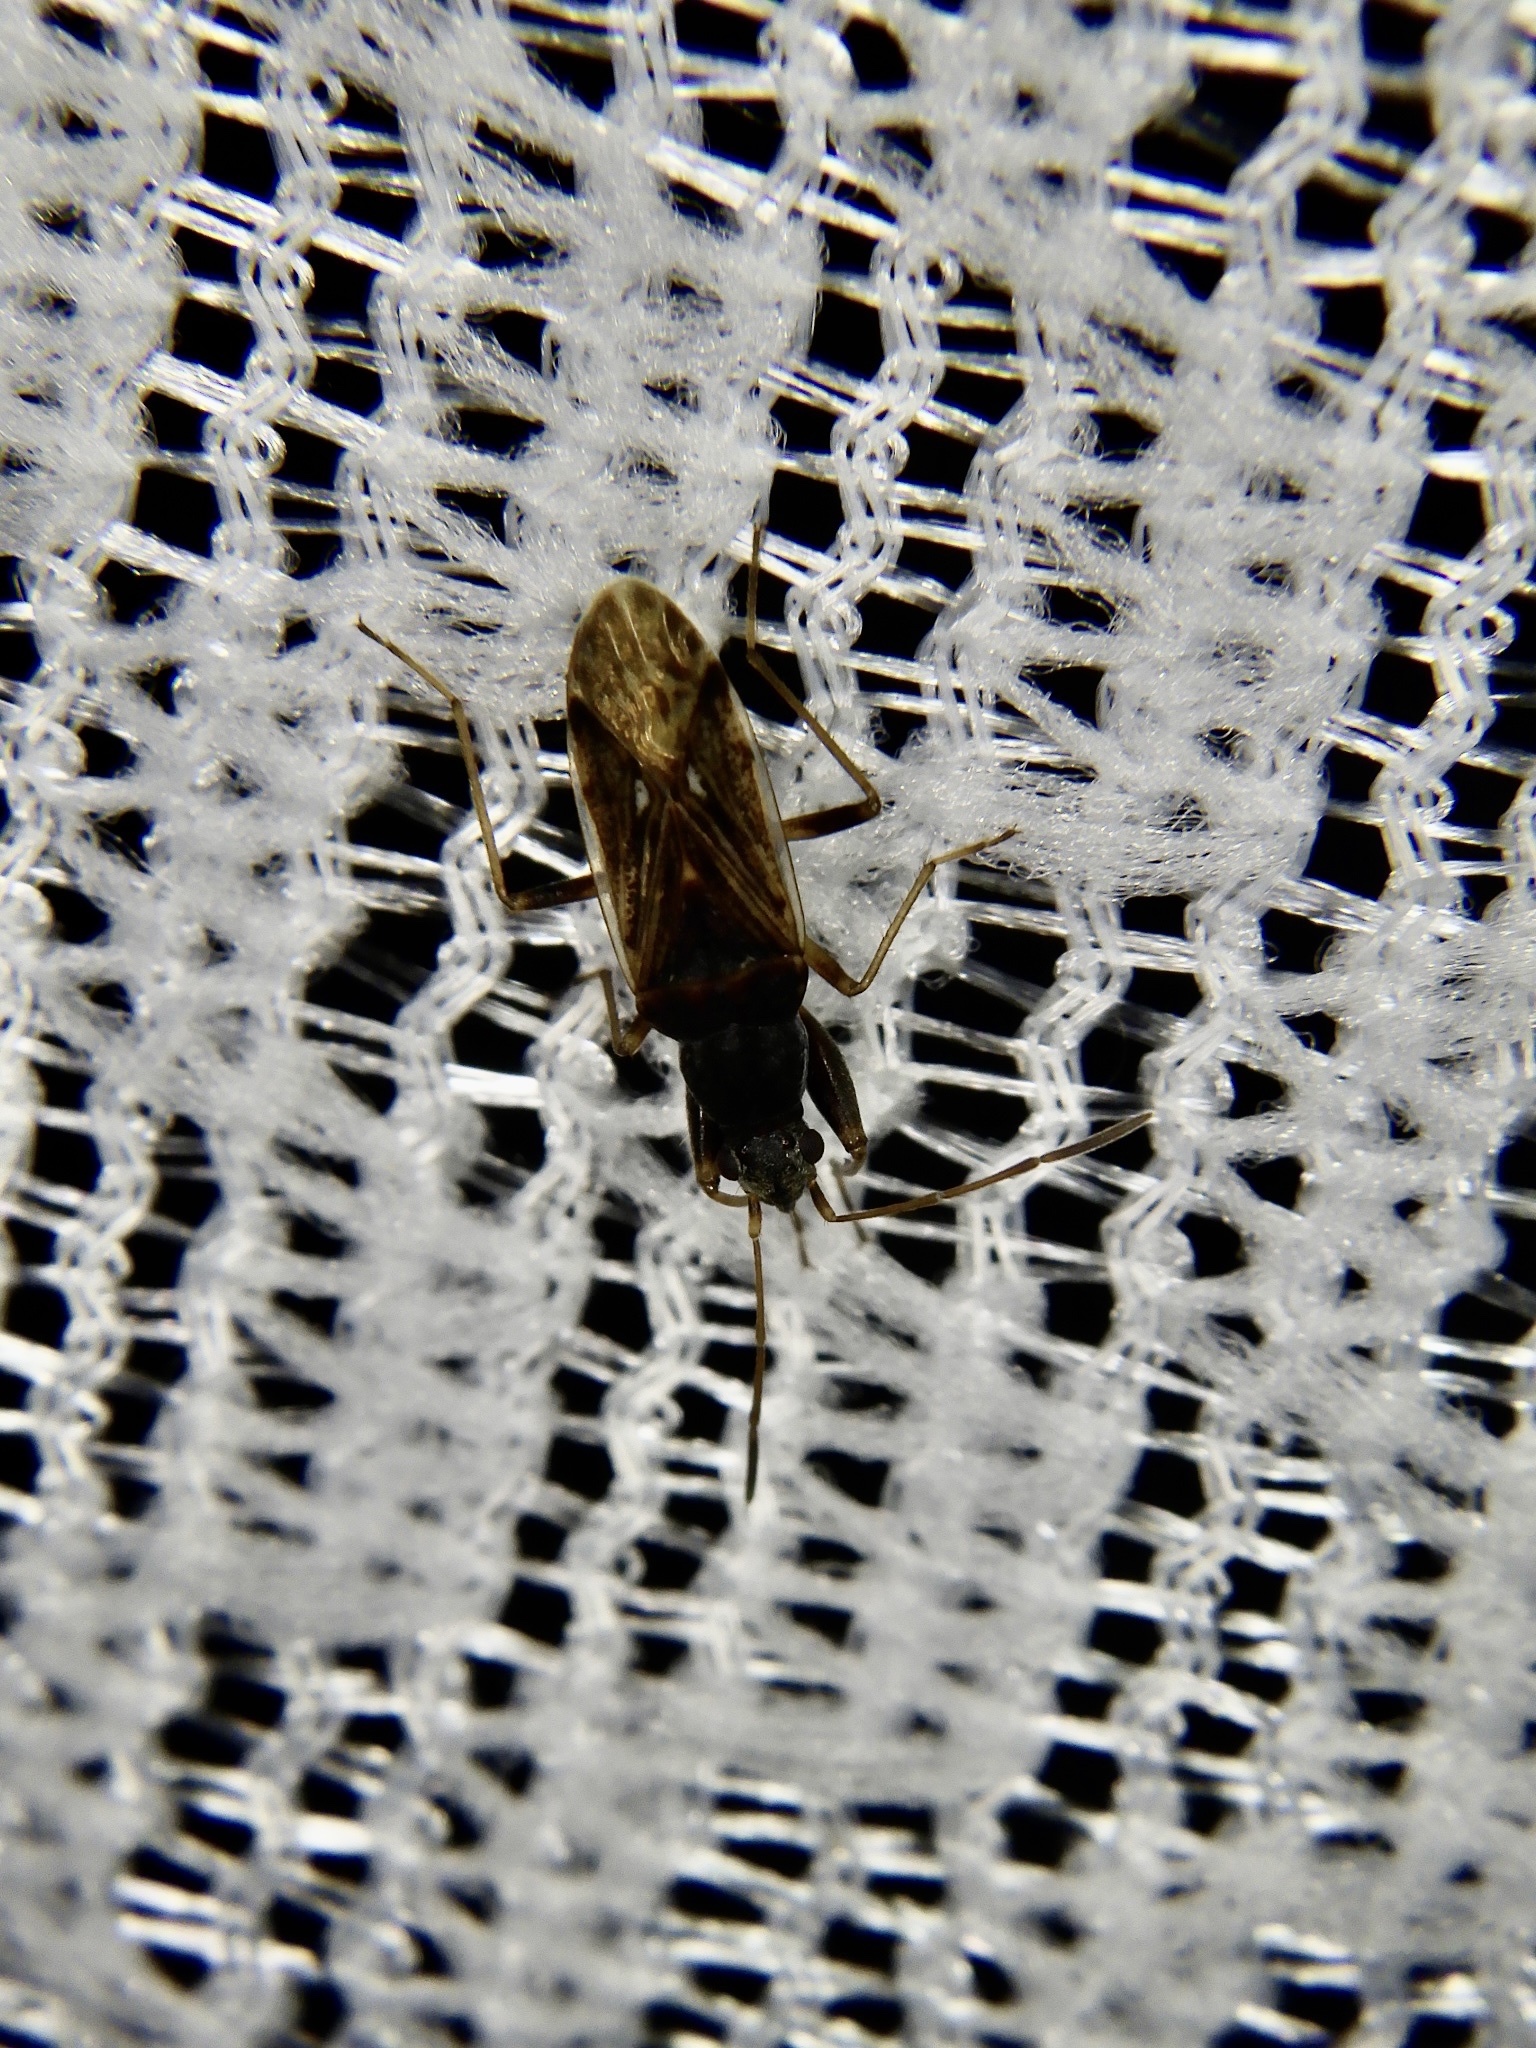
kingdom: Animalia
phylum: Arthropoda
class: Insecta
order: Hemiptera
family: Rhyparochromidae
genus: Horridipamera
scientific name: Horridipamera lateralis
